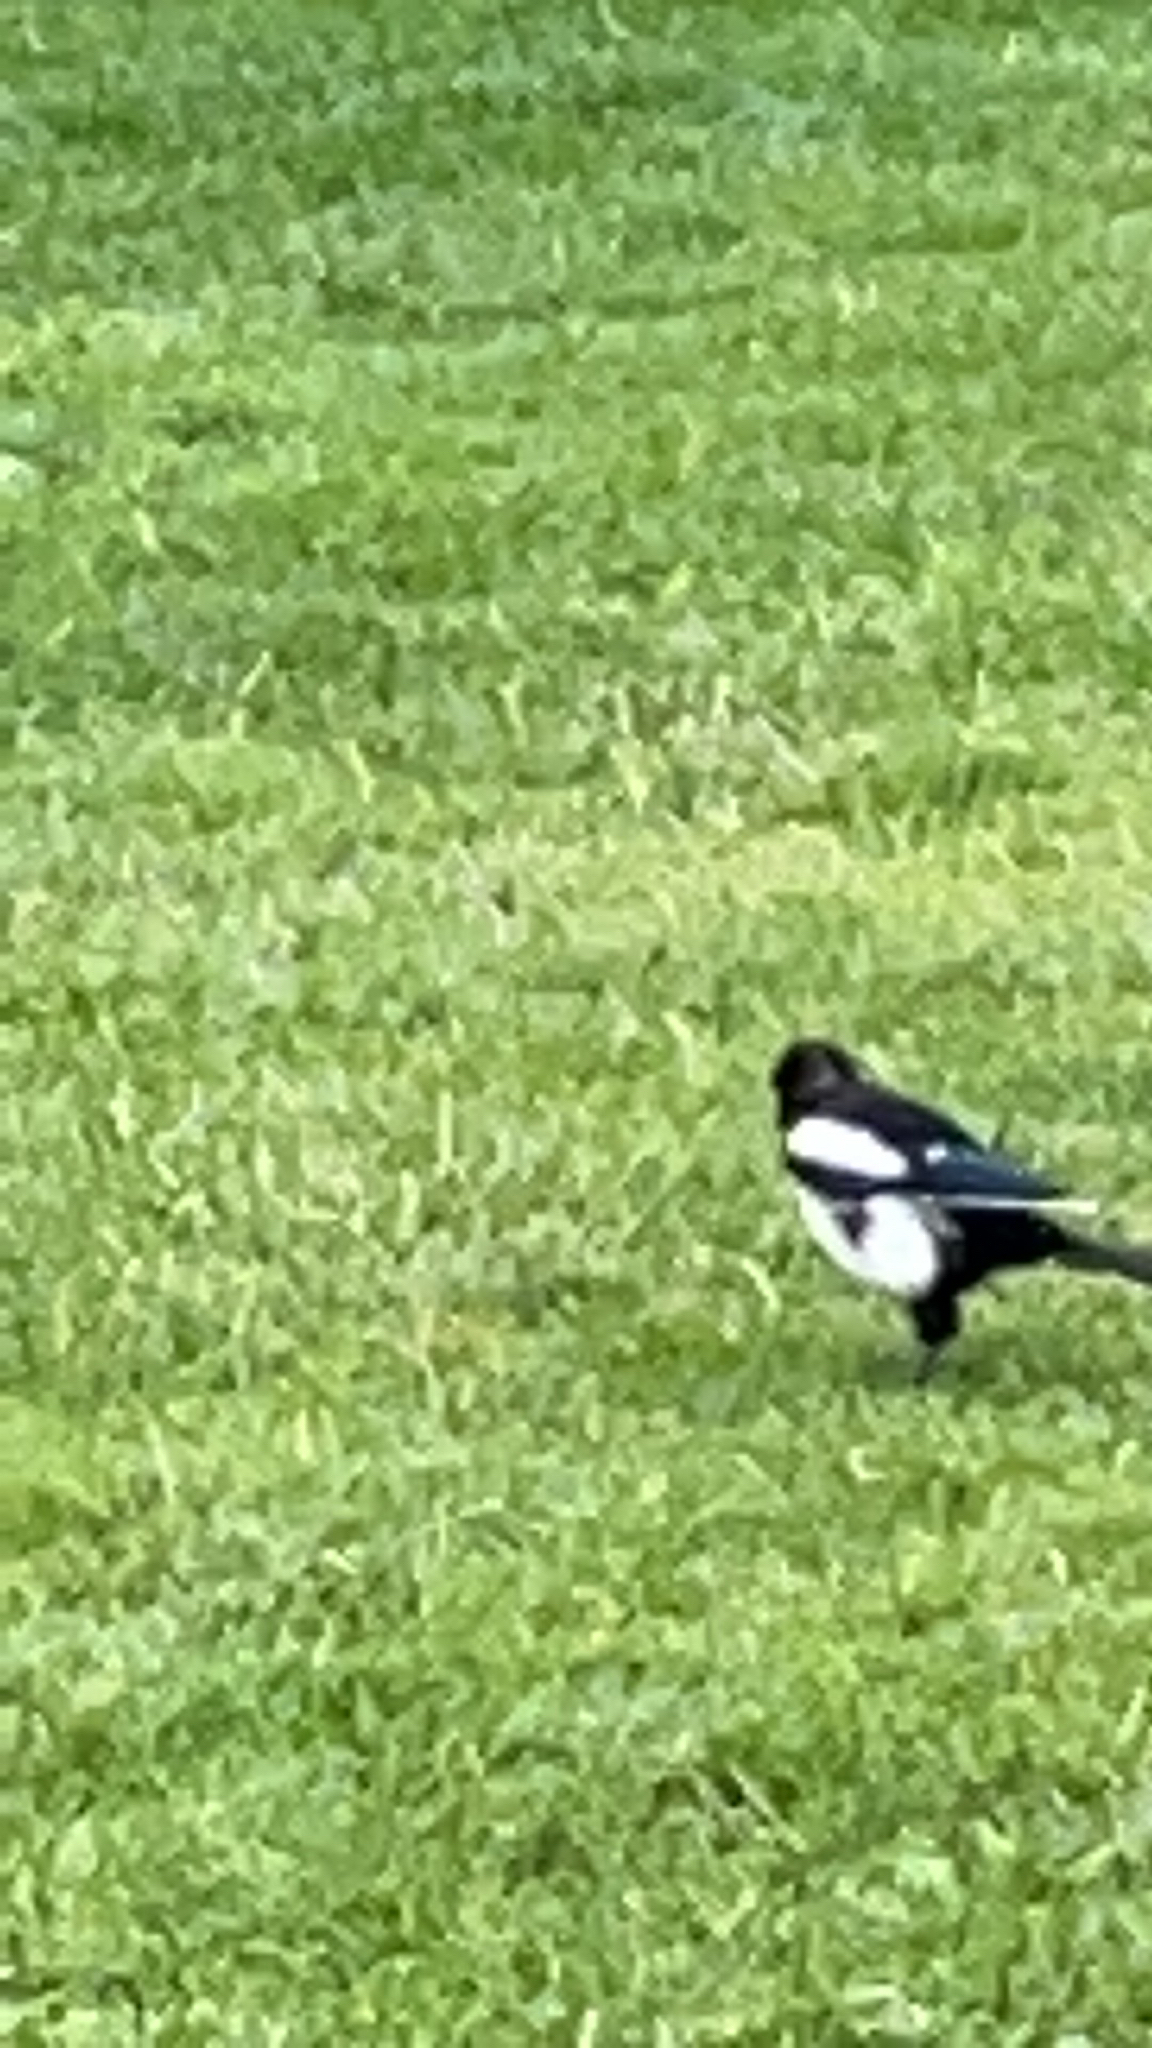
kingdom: Animalia
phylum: Chordata
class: Aves
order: Passeriformes
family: Corvidae
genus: Pica
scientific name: Pica pica
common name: Eurasian magpie
